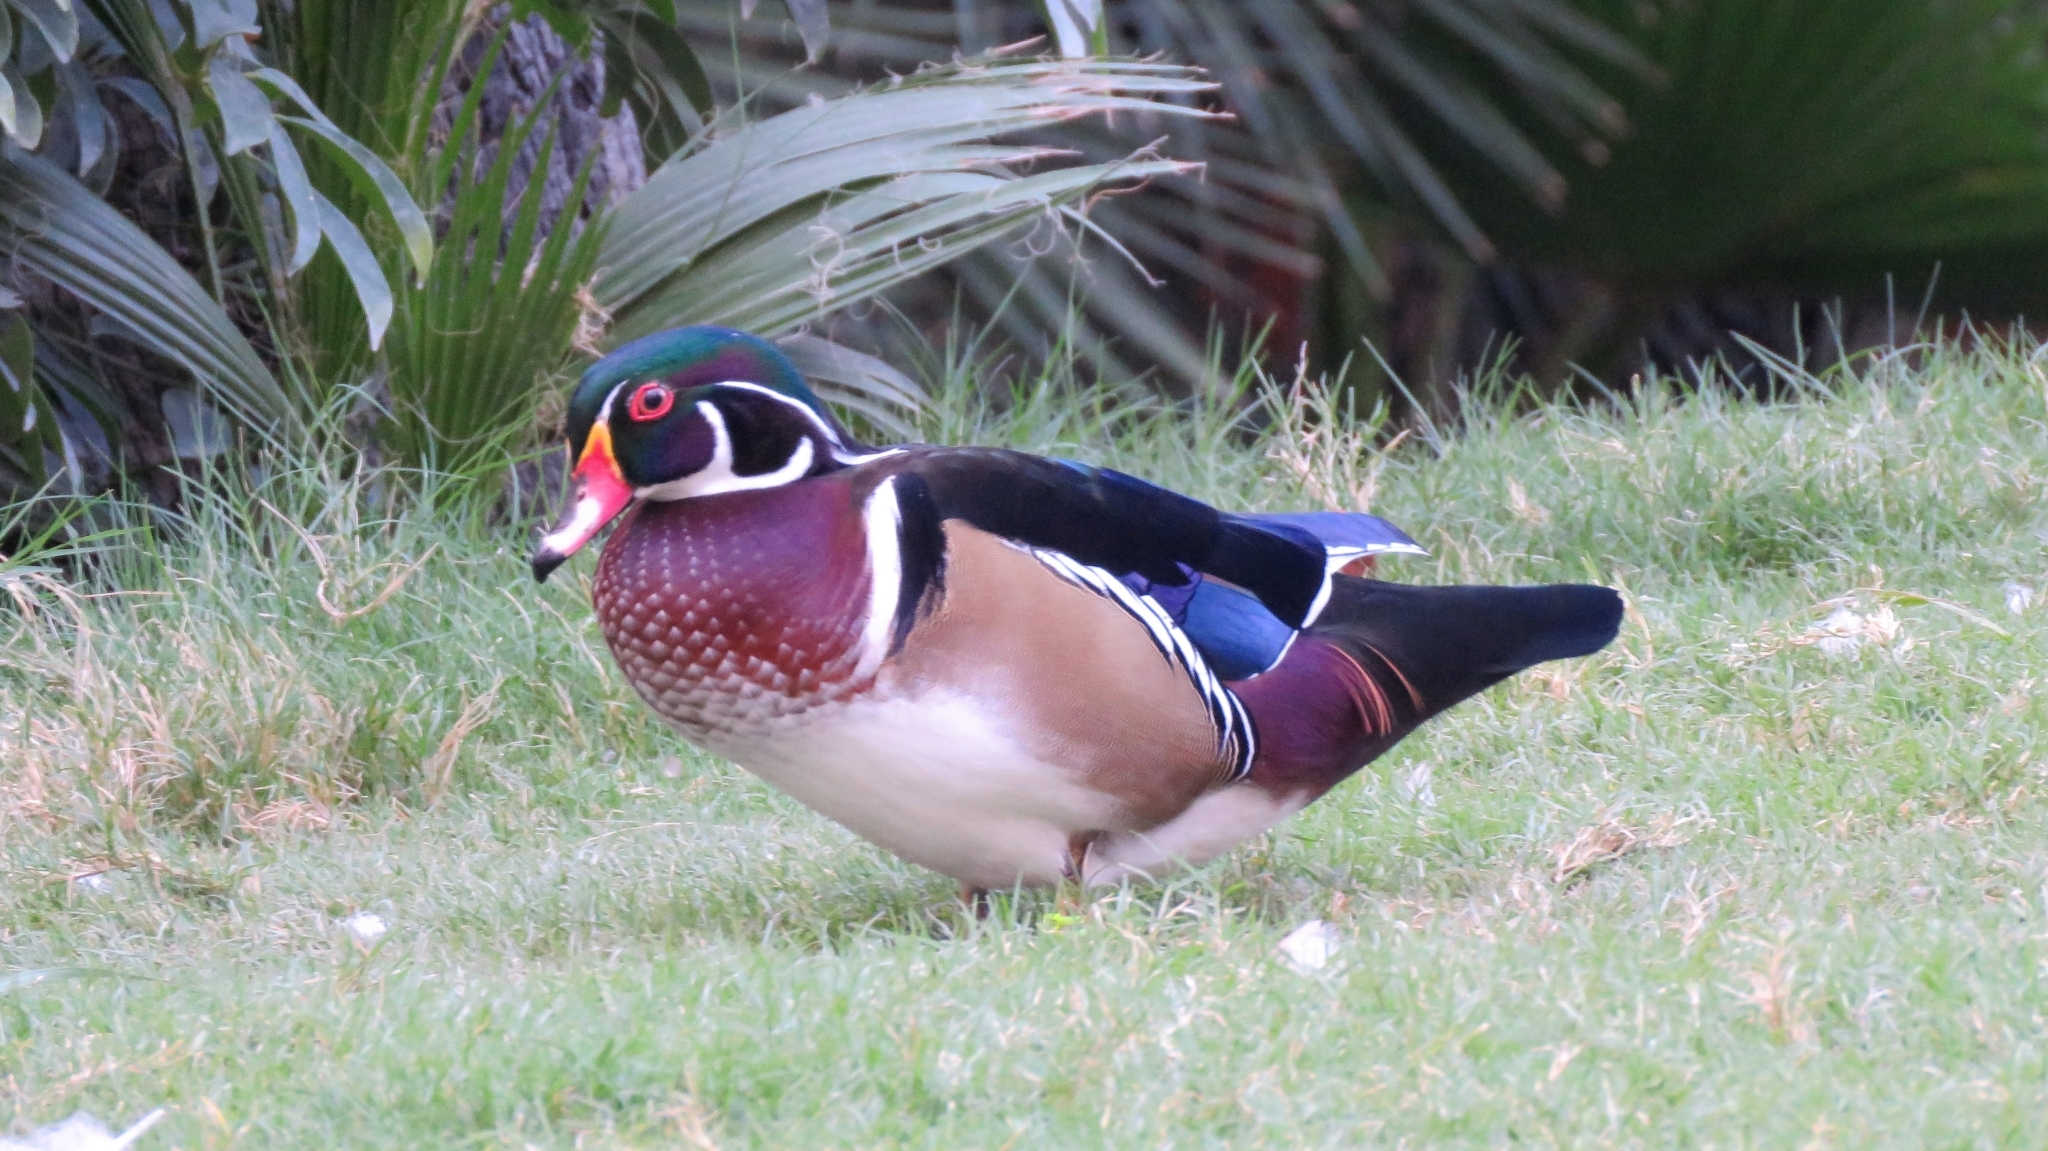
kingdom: Animalia
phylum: Chordata
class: Aves
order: Anseriformes
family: Anatidae
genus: Aix
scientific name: Aix sponsa
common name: Wood duck
